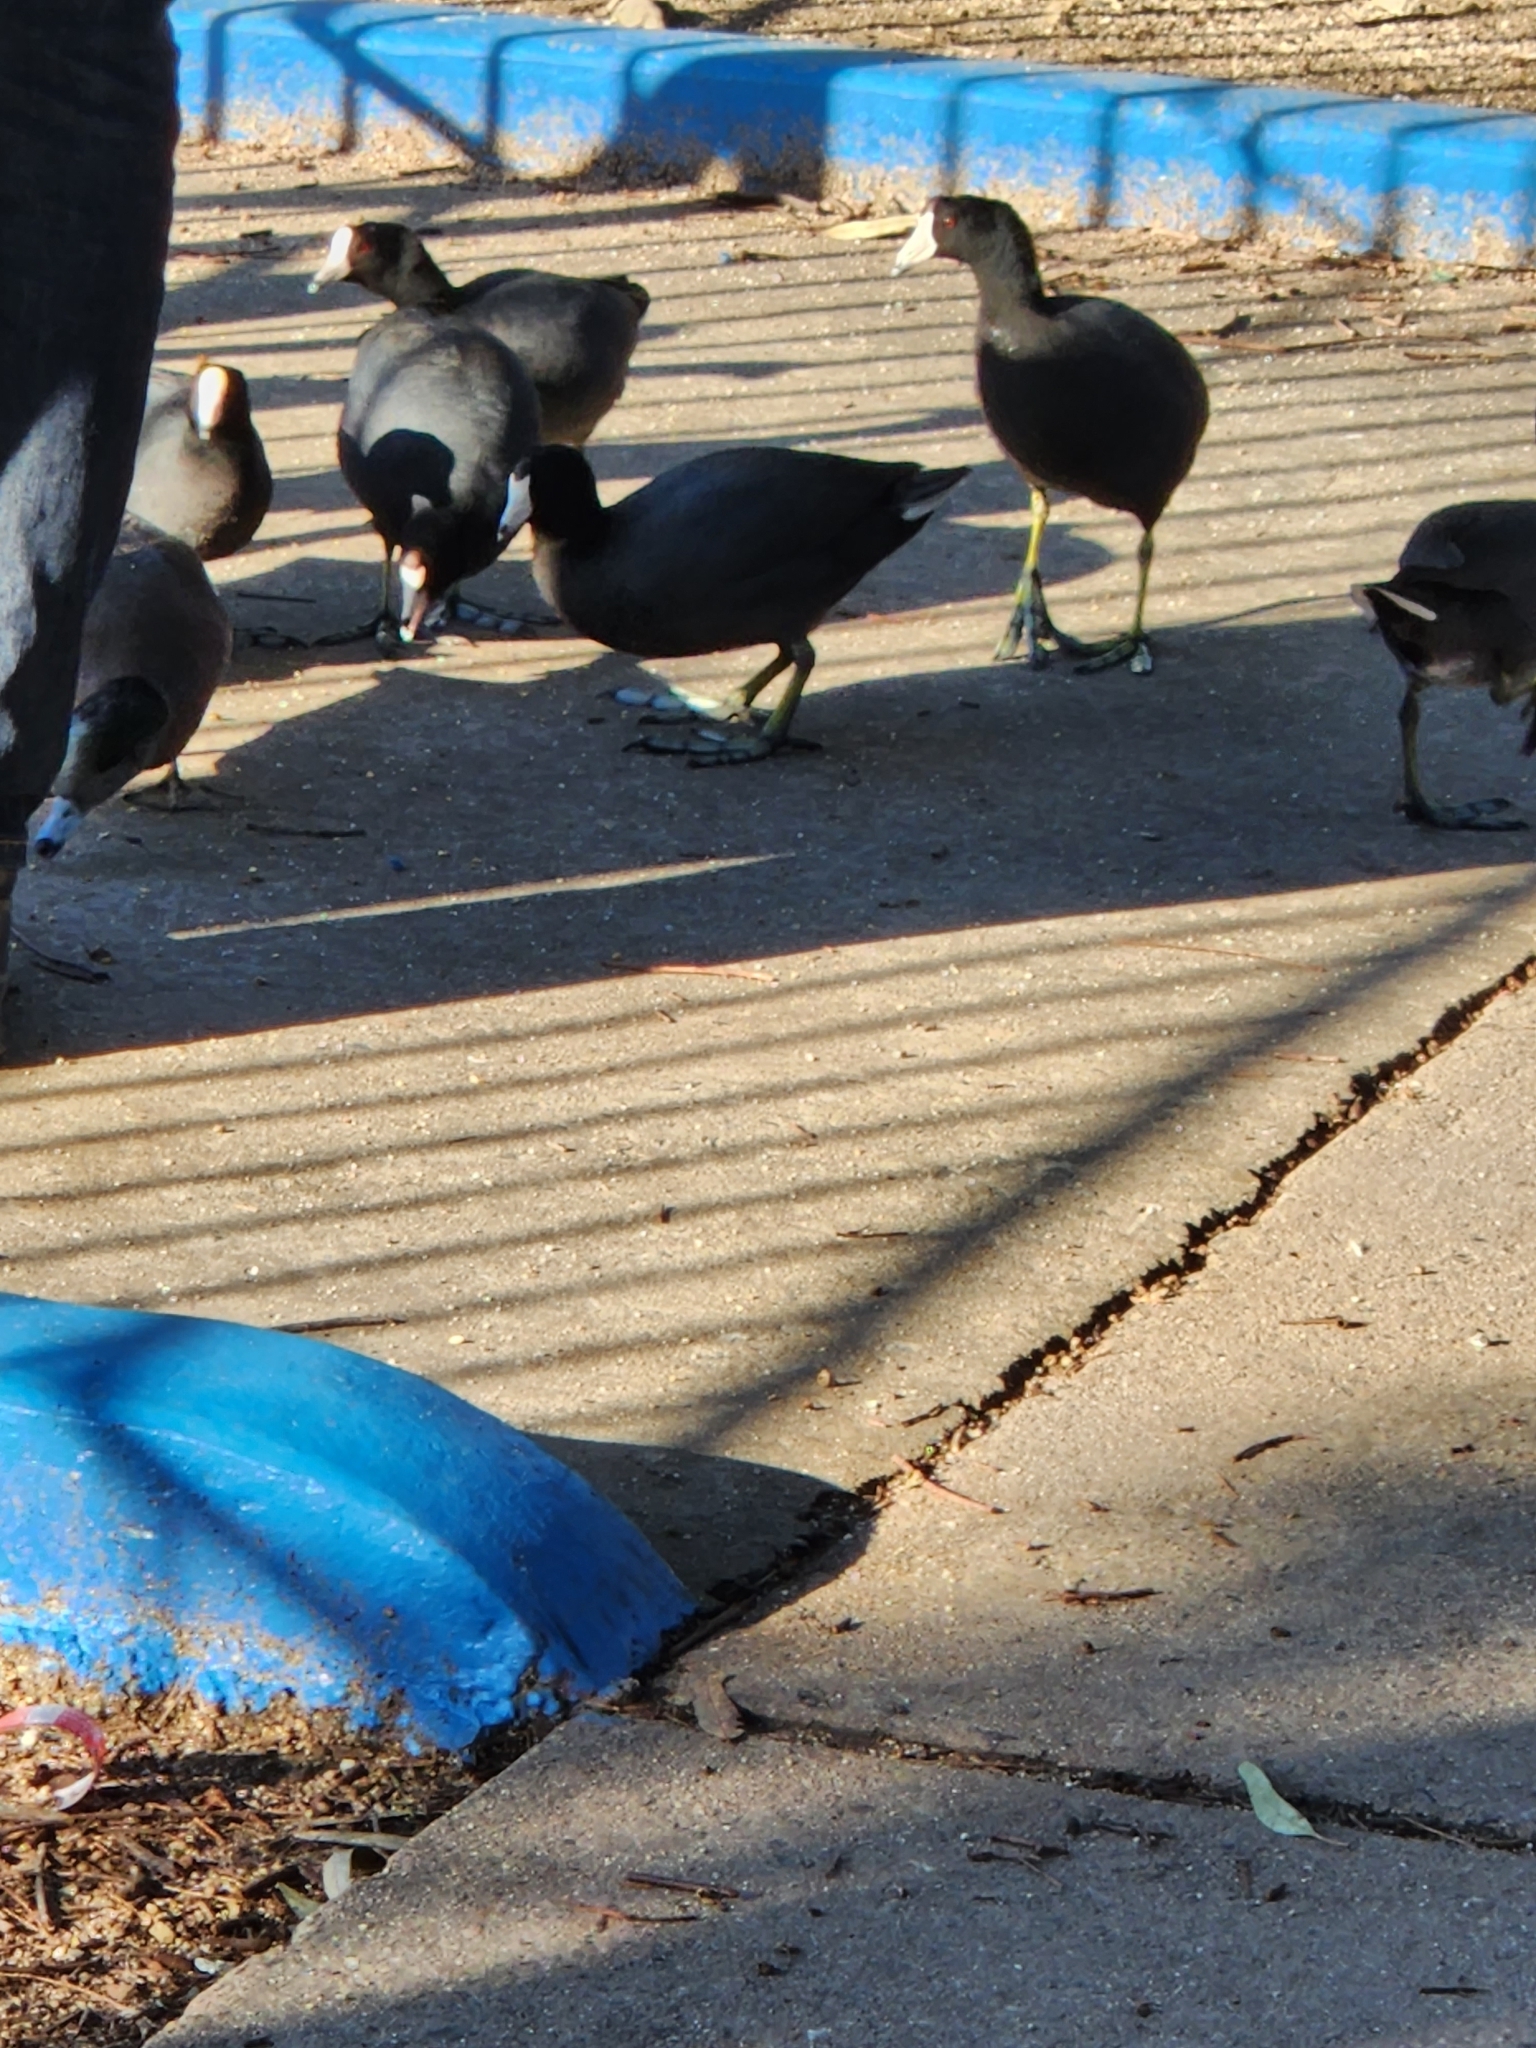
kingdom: Animalia
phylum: Chordata
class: Aves
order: Gruiformes
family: Rallidae
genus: Fulica
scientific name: Fulica americana
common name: American coot
